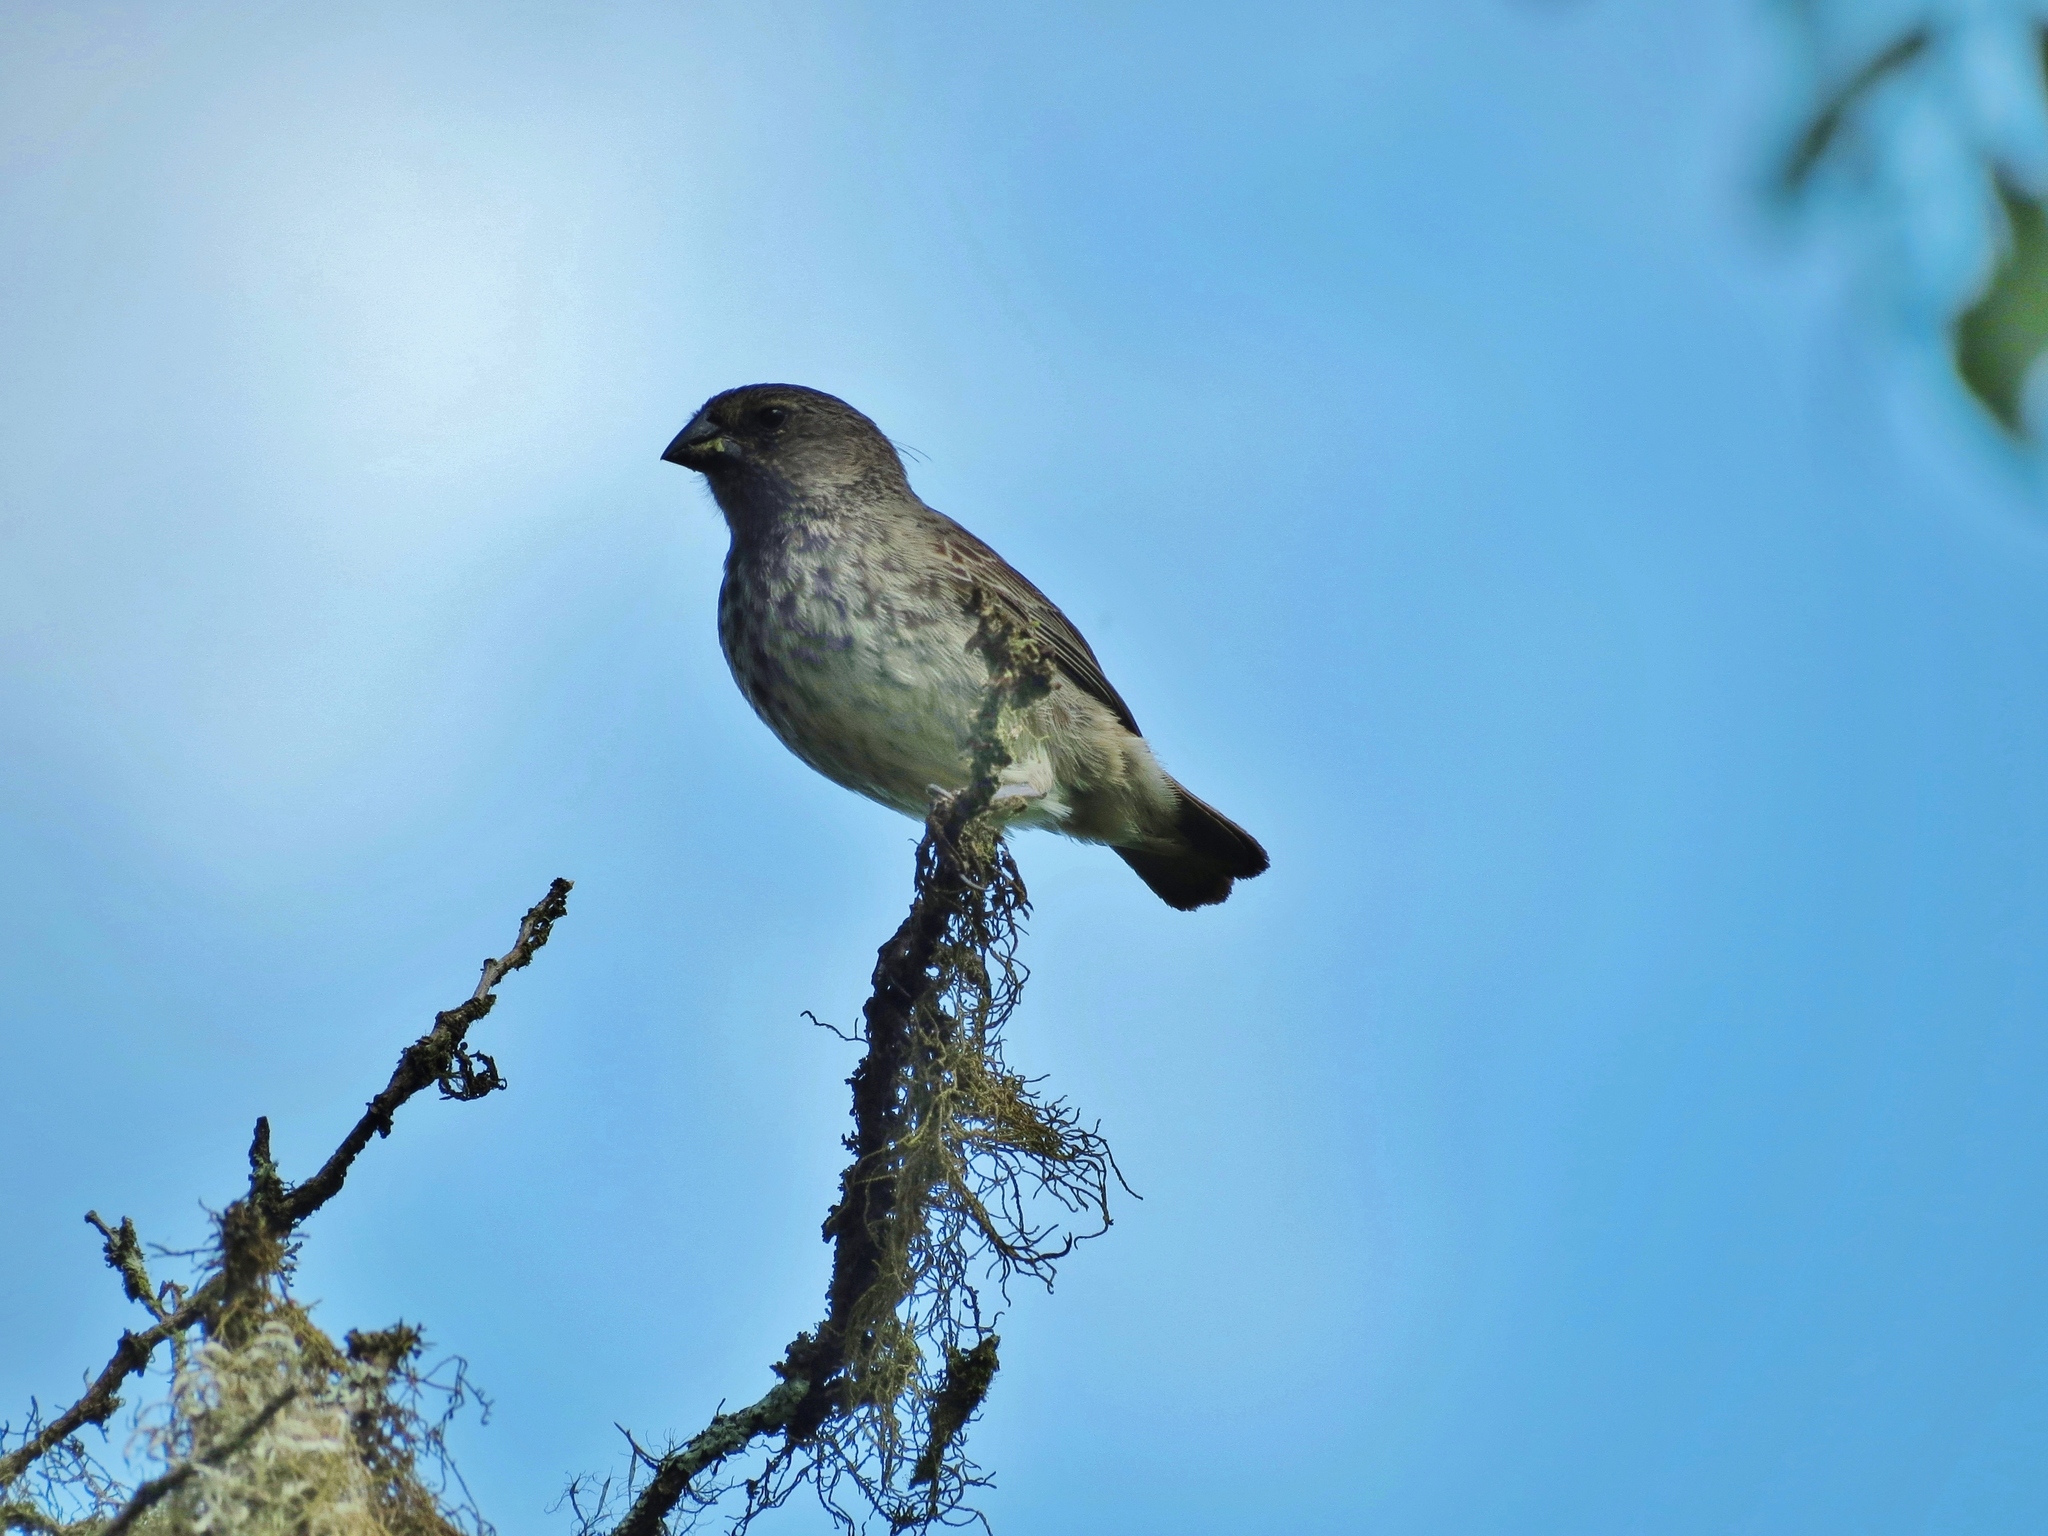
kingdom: Animalia
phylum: Chordata
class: Aves
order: Passeriformes
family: Thraupidae
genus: Geospiza
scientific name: Geospiza fuliginosa
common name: Small ground finch
